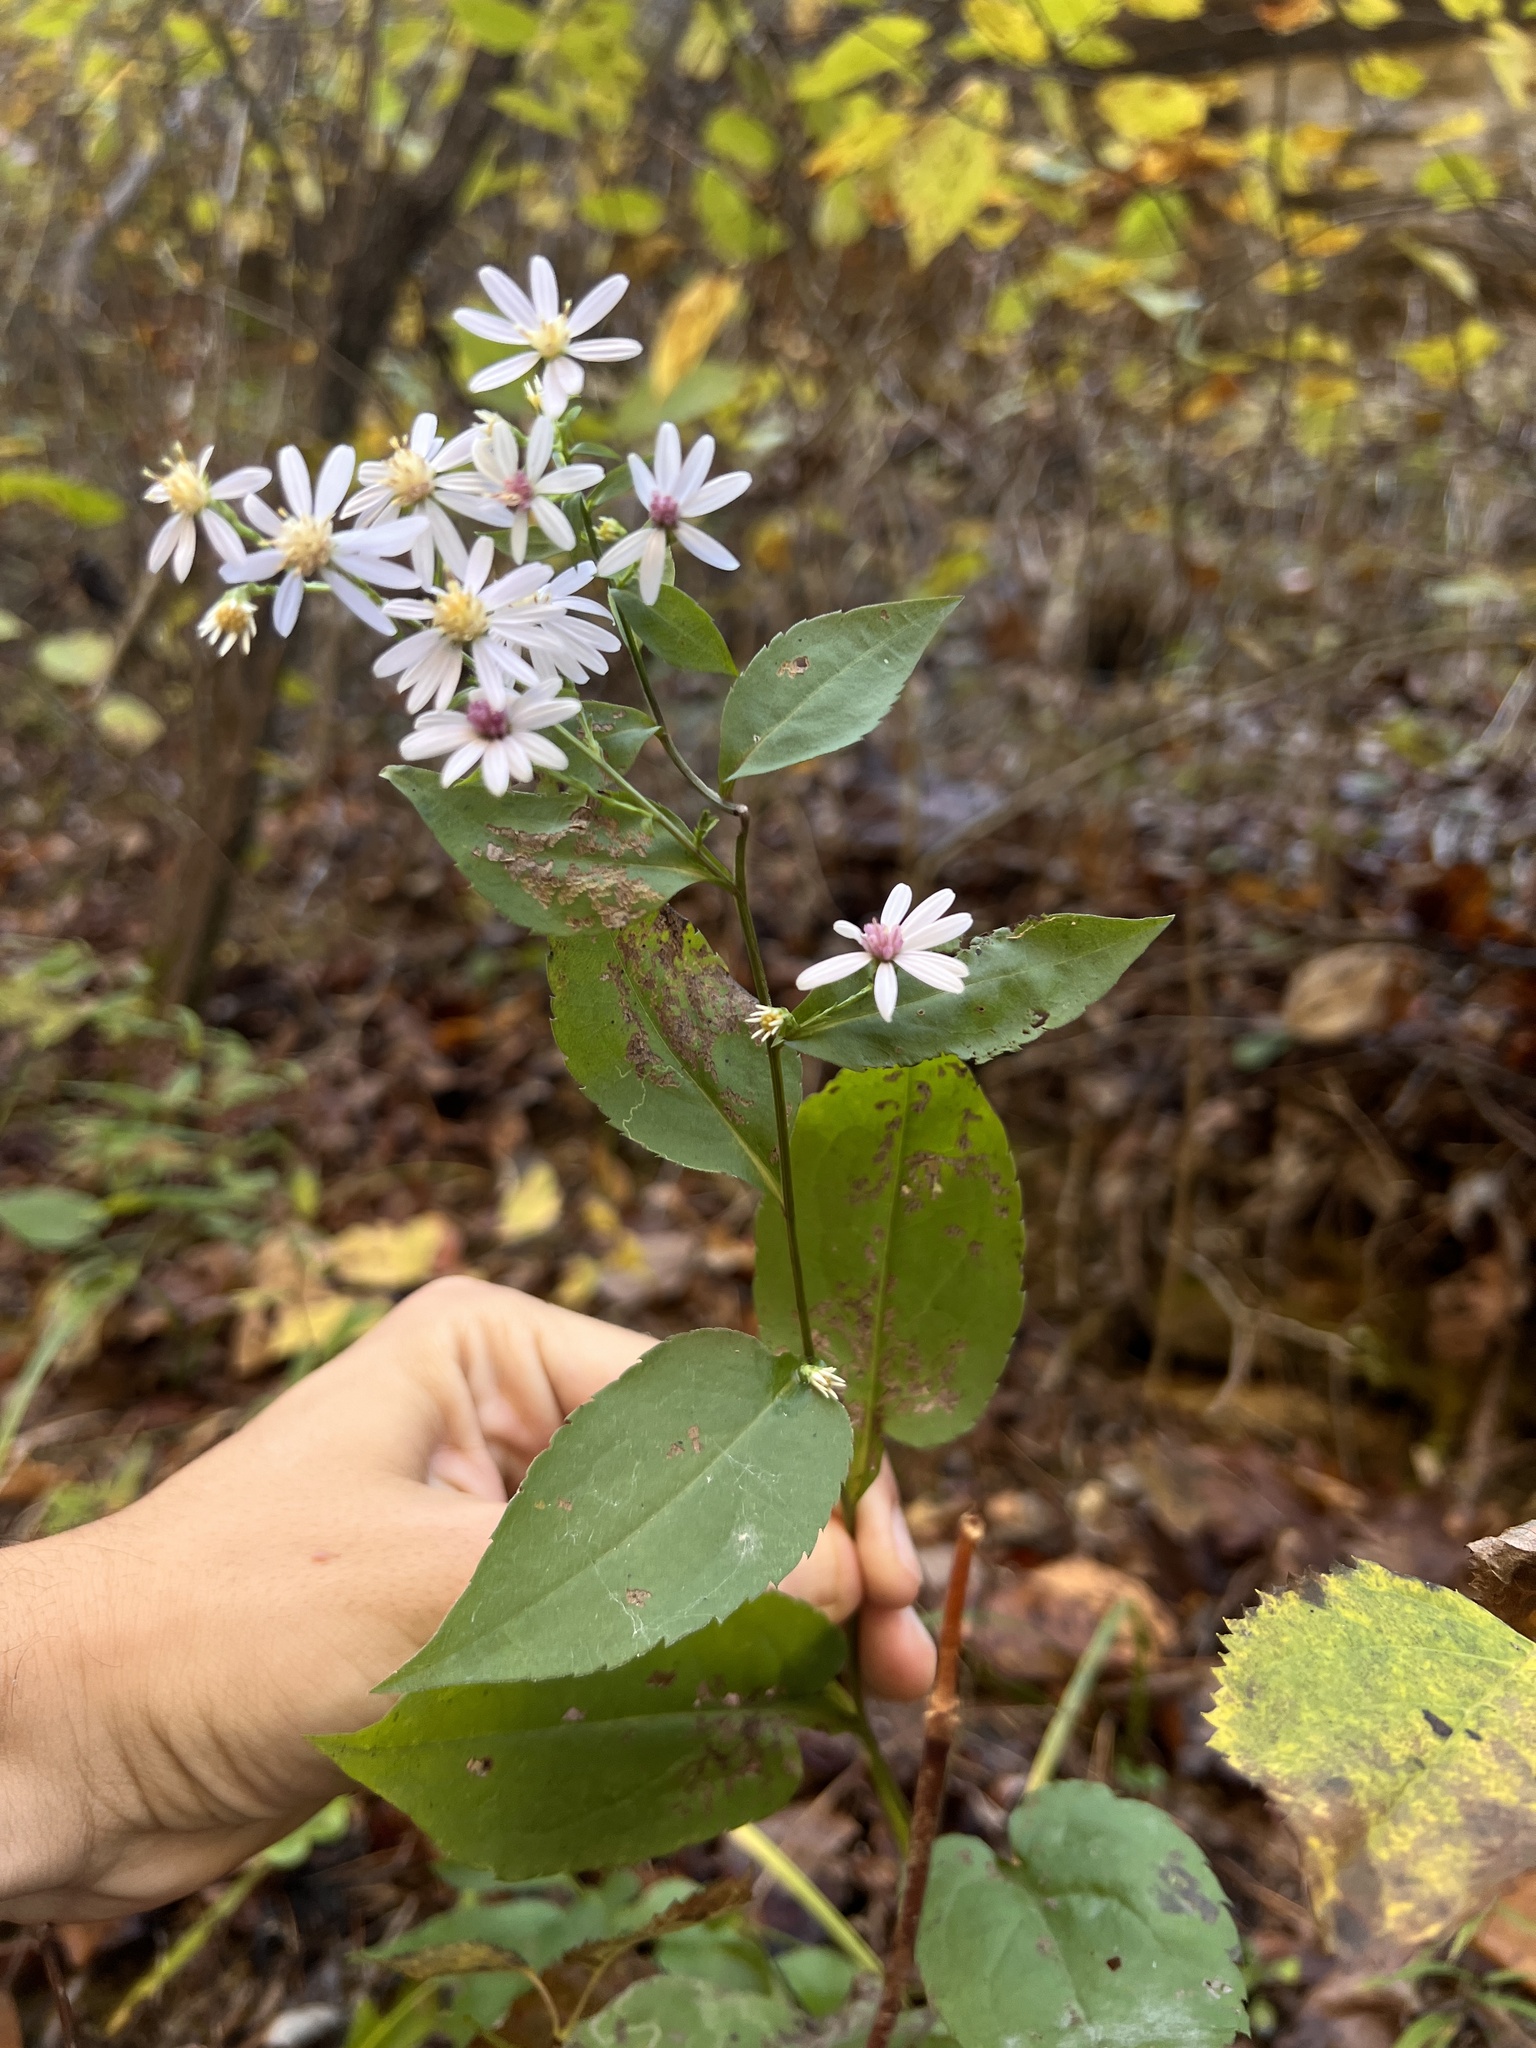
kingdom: Plantae
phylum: Tracheophyta
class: Magnoliopsida
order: Asterales
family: Asteraceae
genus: Symphyotrichum
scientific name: Symphyotrichum cordifolium
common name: Beeweed
